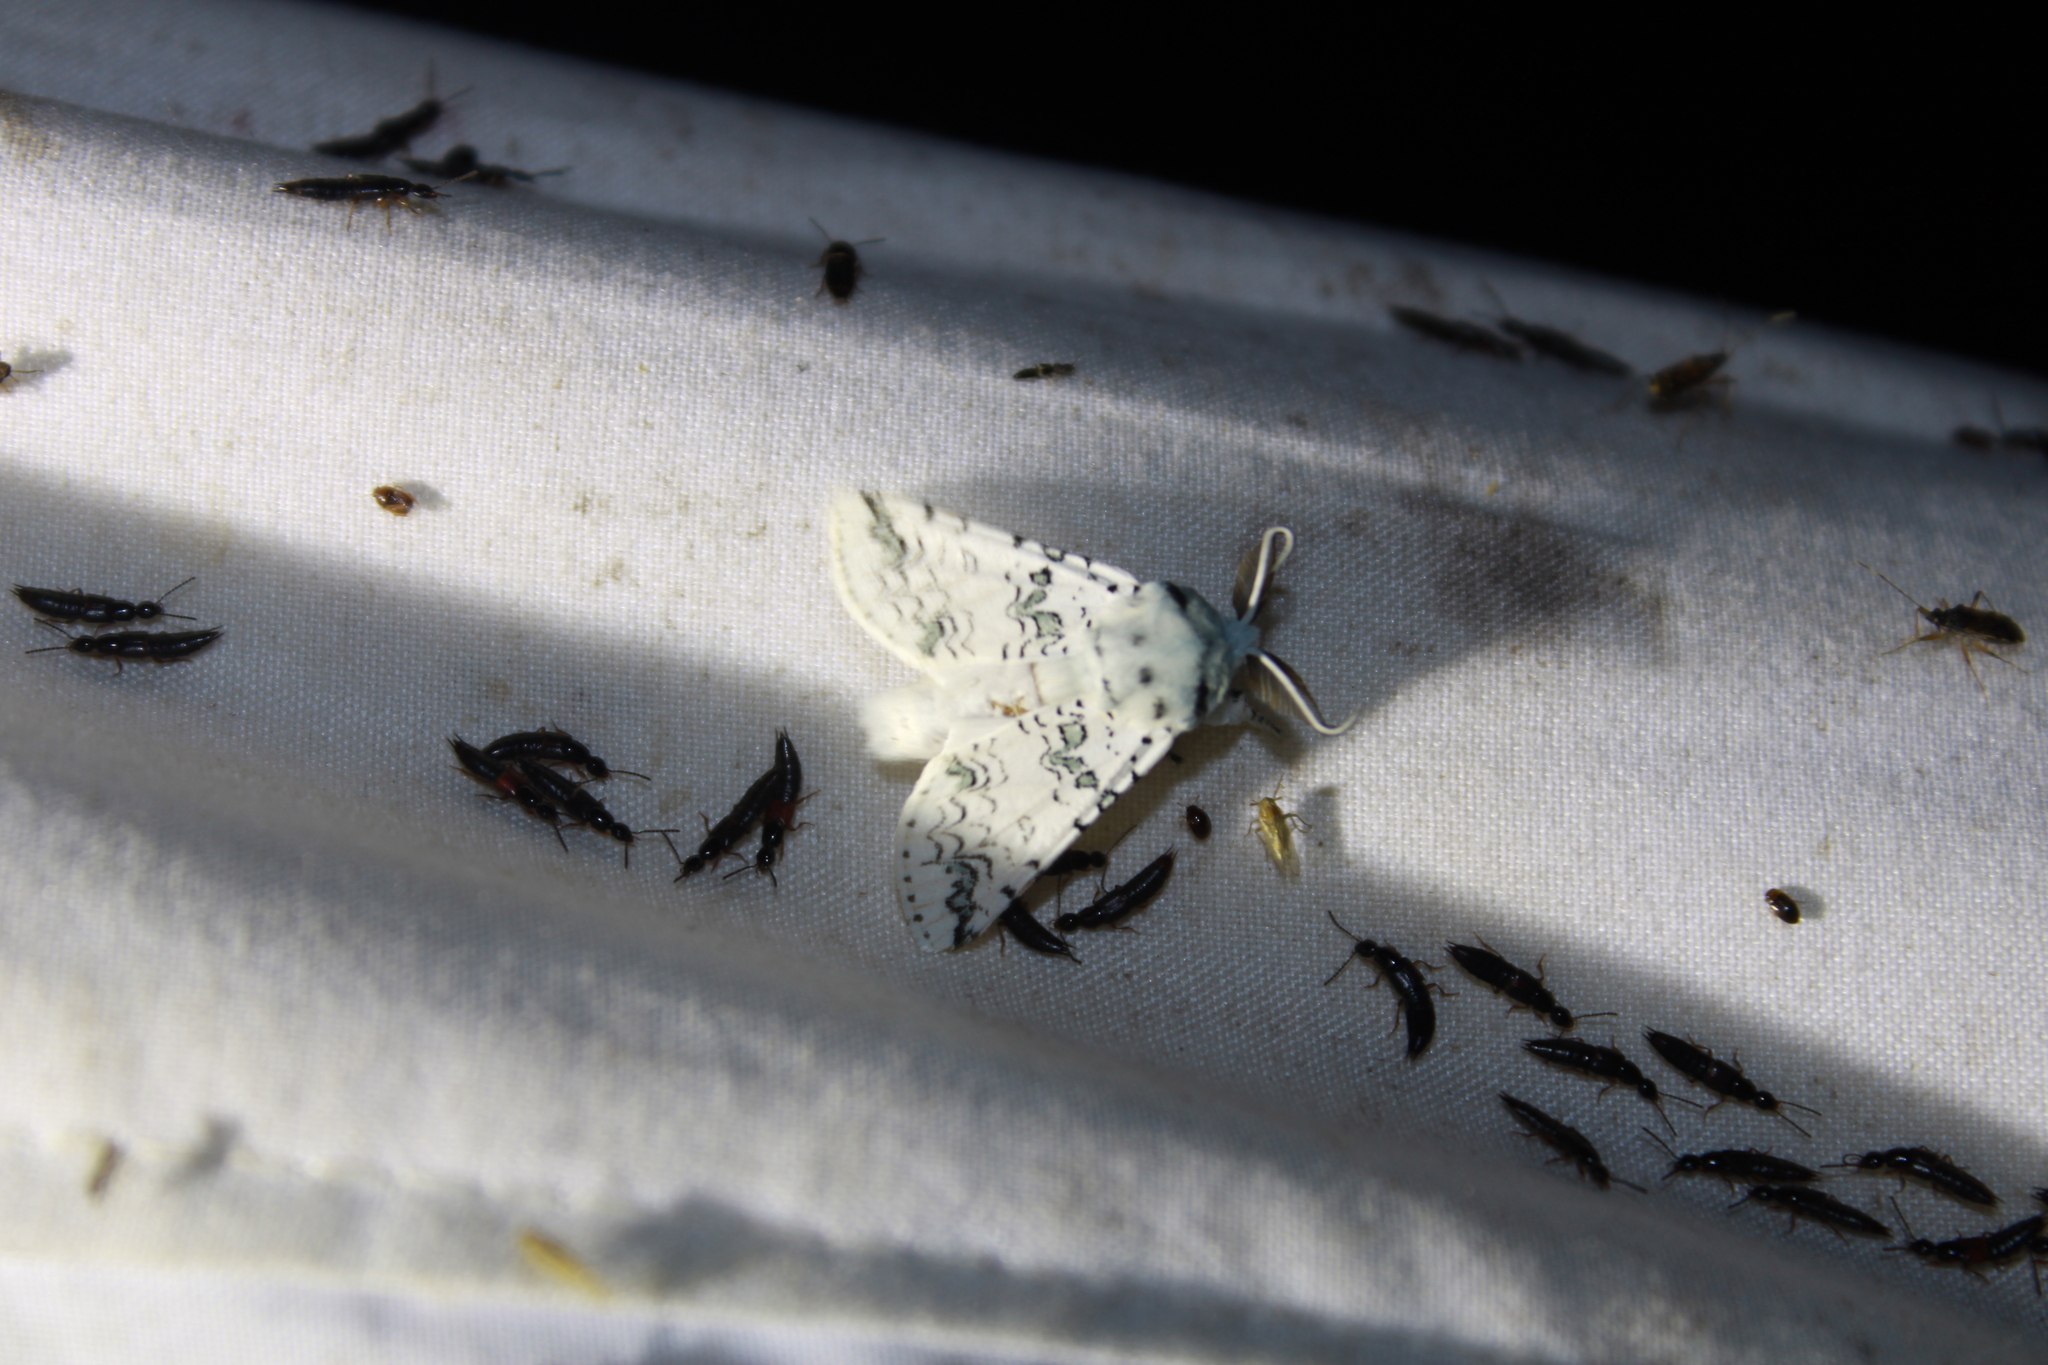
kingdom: Animalia
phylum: Arthropoda
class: Insecta
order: Lepidoptera
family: Notodontidae
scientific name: Notodontidae
